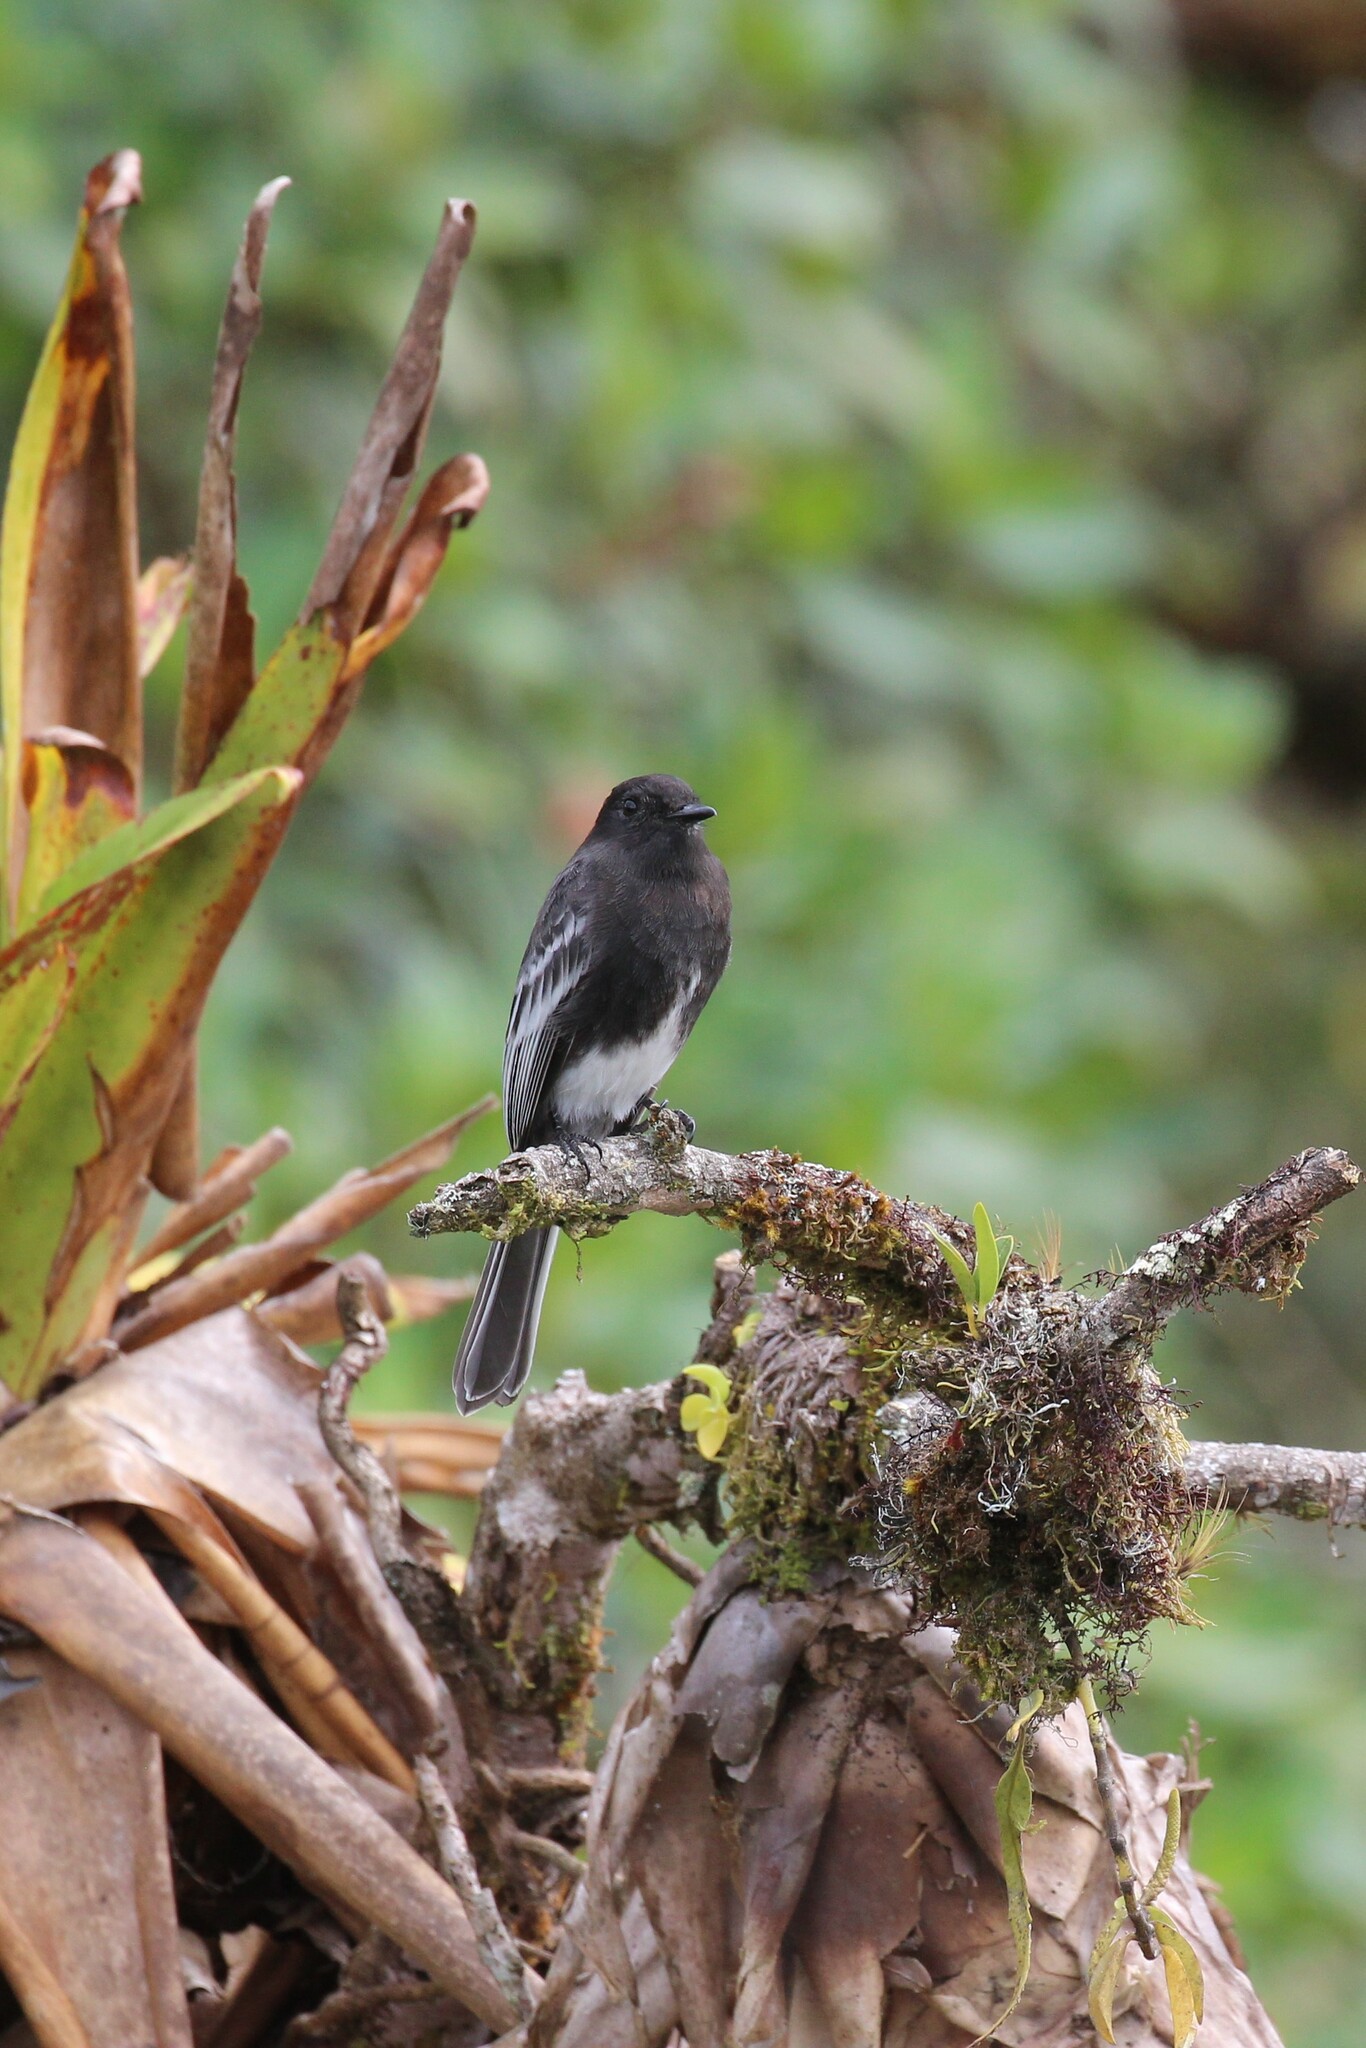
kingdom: Animalia
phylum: Chordata
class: Aves
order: Passeriformes
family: Tyrannidae
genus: Sayornis
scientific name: Sayornis nigricans
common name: Black phoebe
